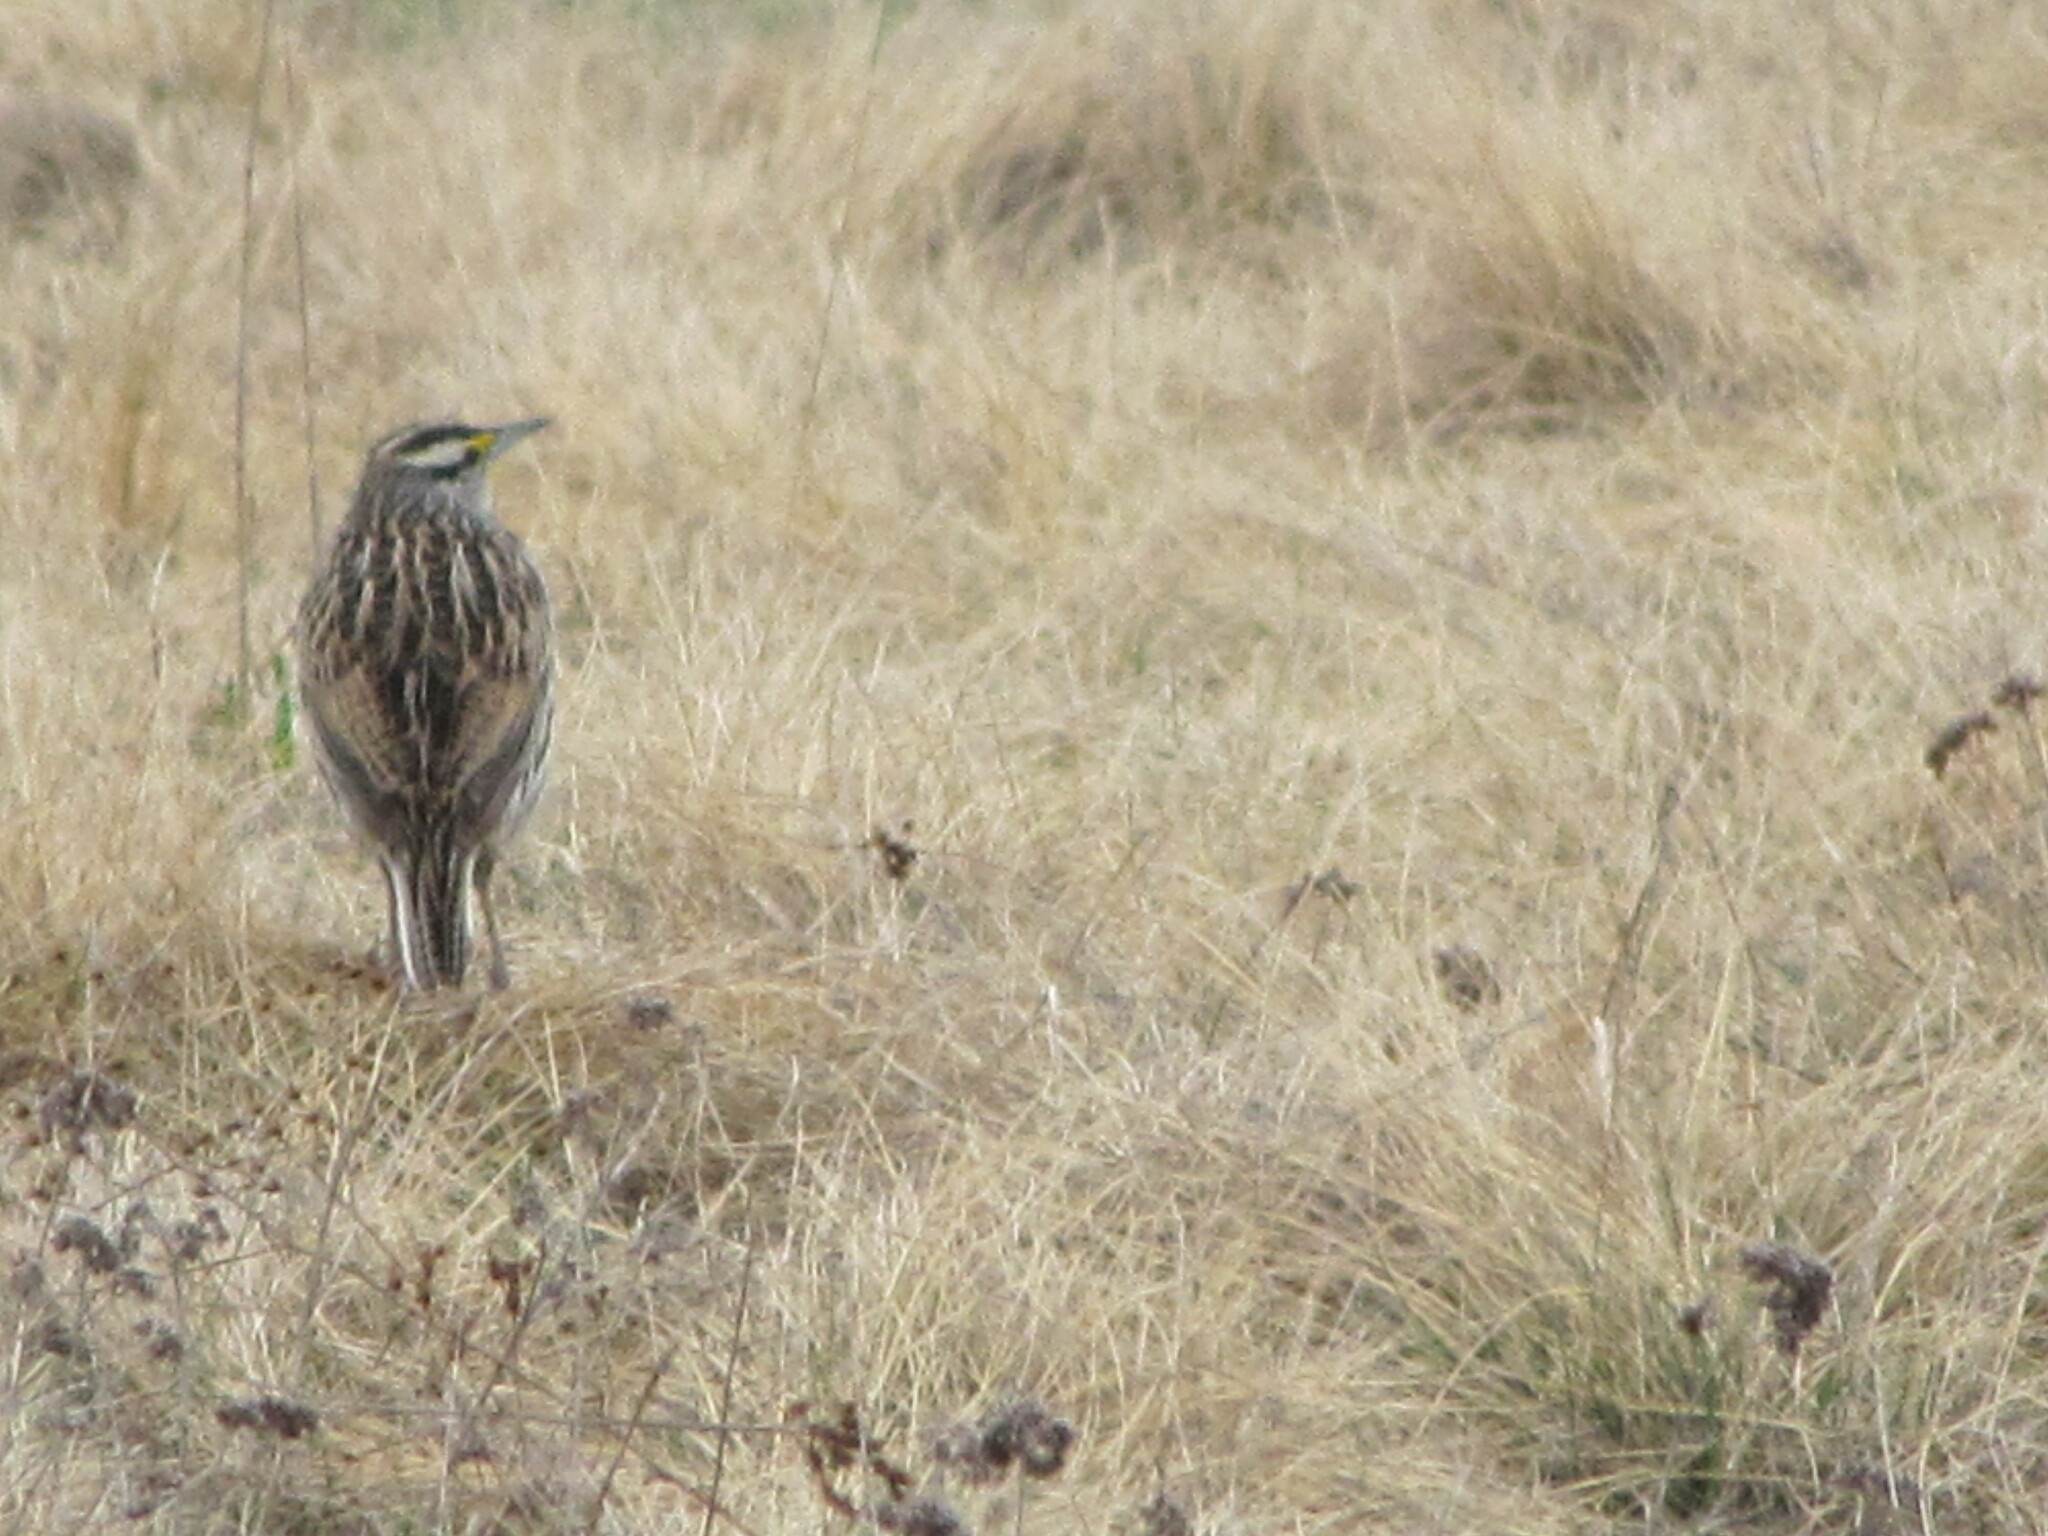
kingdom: Animalia
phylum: Chordata
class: Aves
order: Passeriformes
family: Icteridae
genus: Sturnella
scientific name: Sturnella magna
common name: Eastern meadowlark
